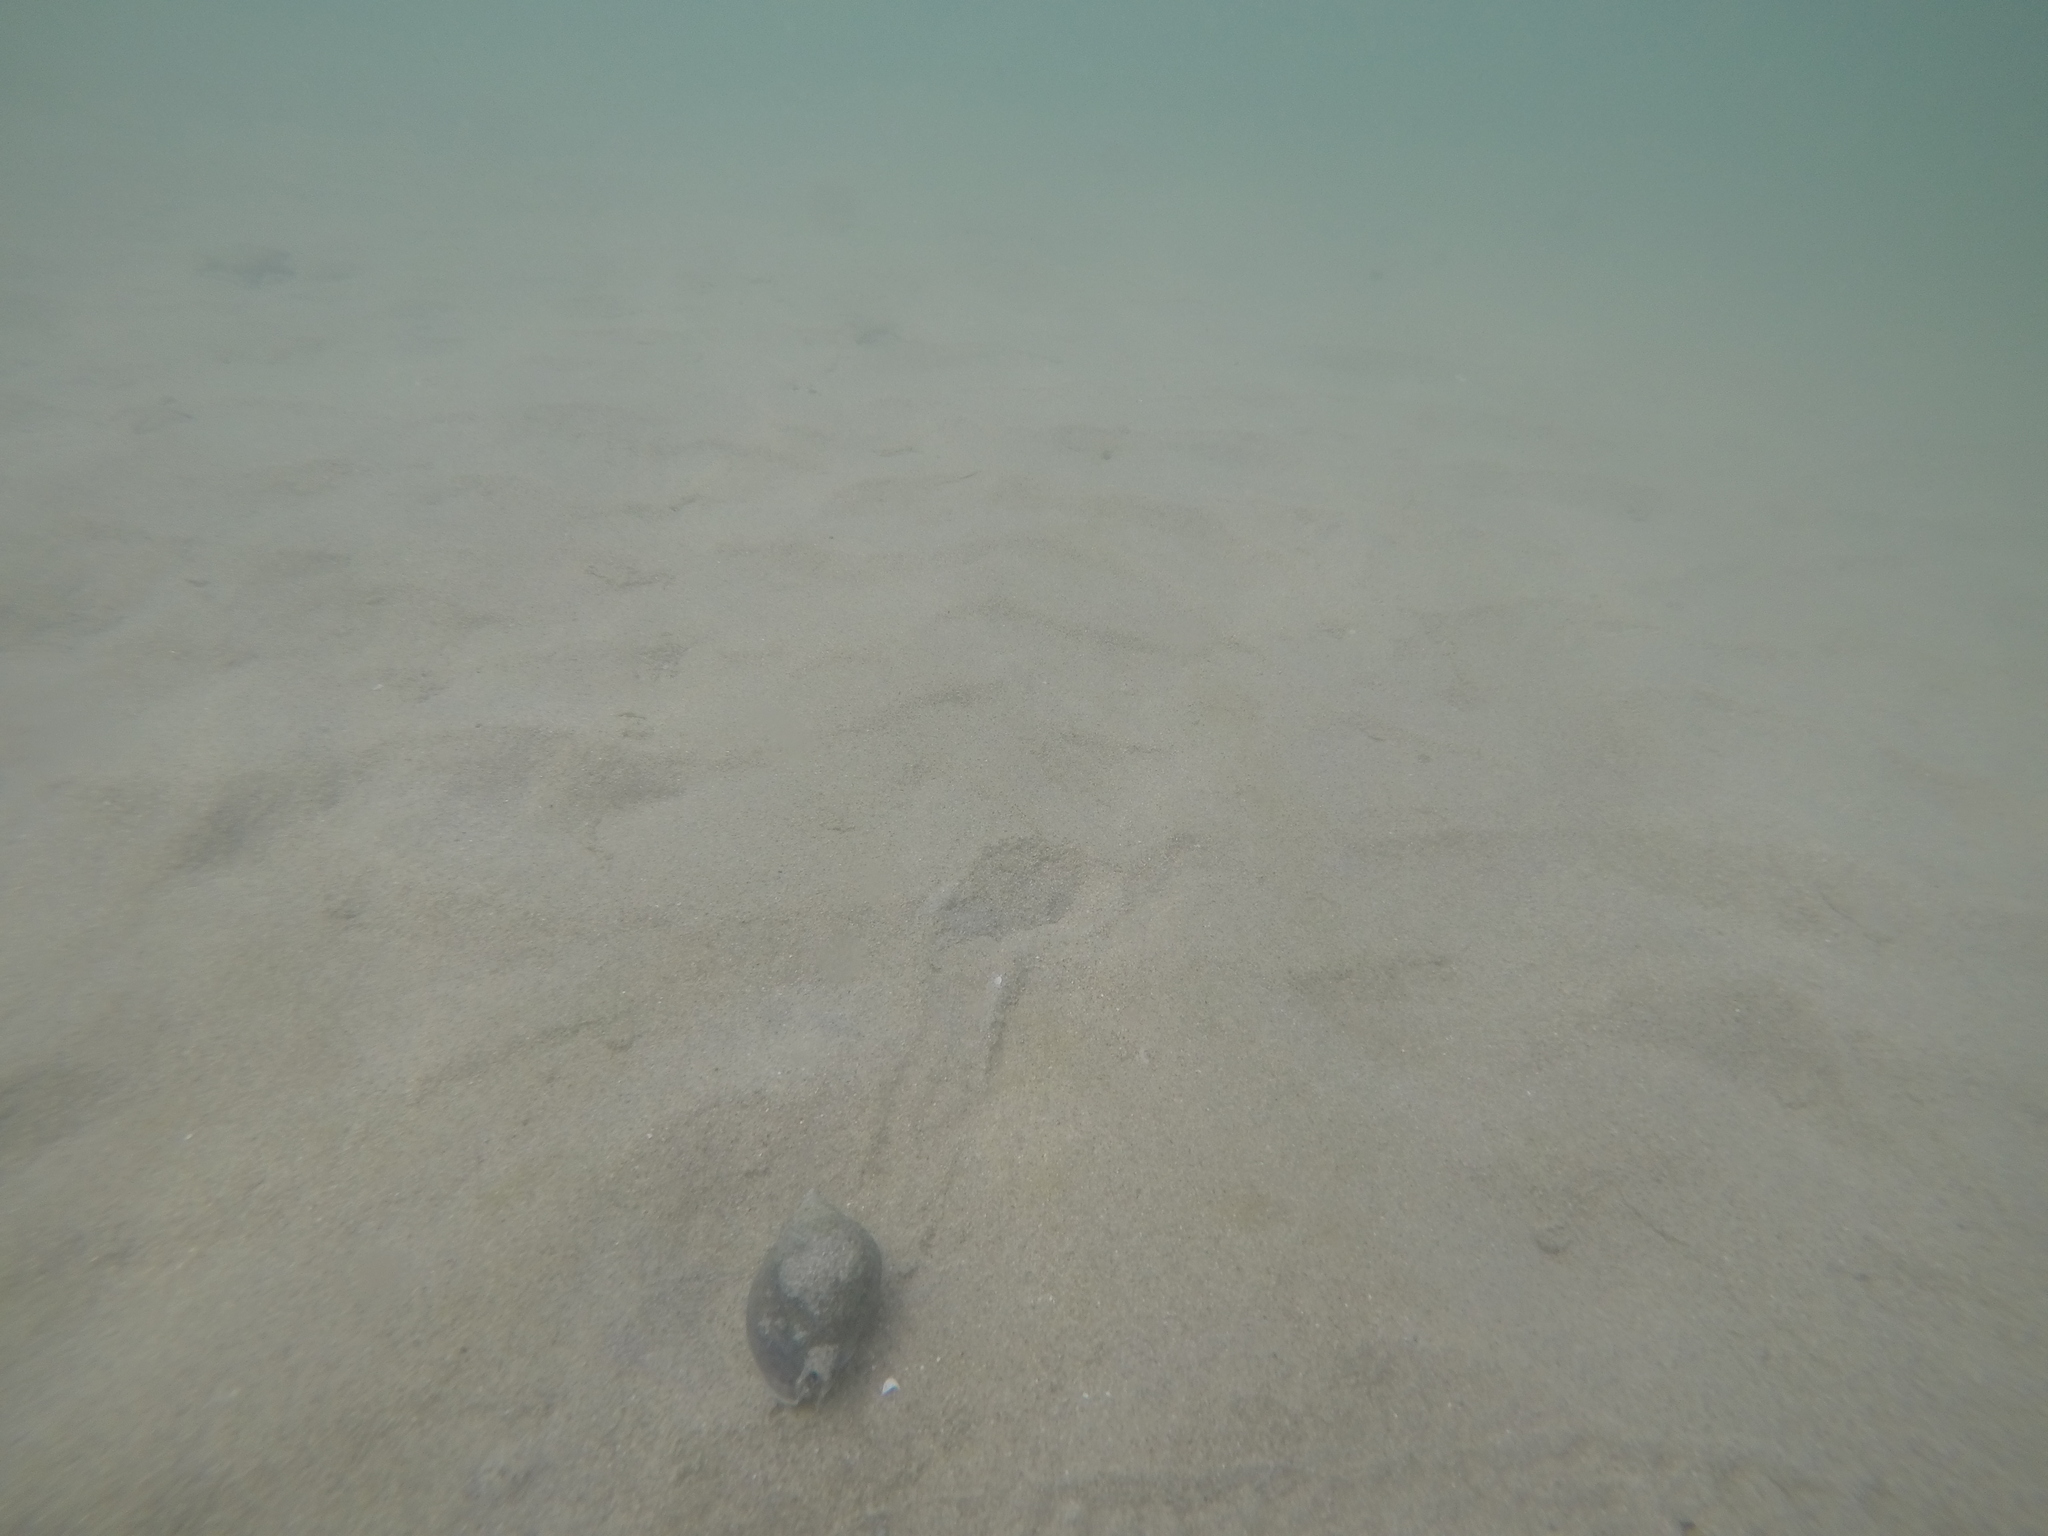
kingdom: Animalia
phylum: Mollusca
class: Gastropoda
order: Neogastropoda
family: Cominellidae
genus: Cominella
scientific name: Cominella maculosa
